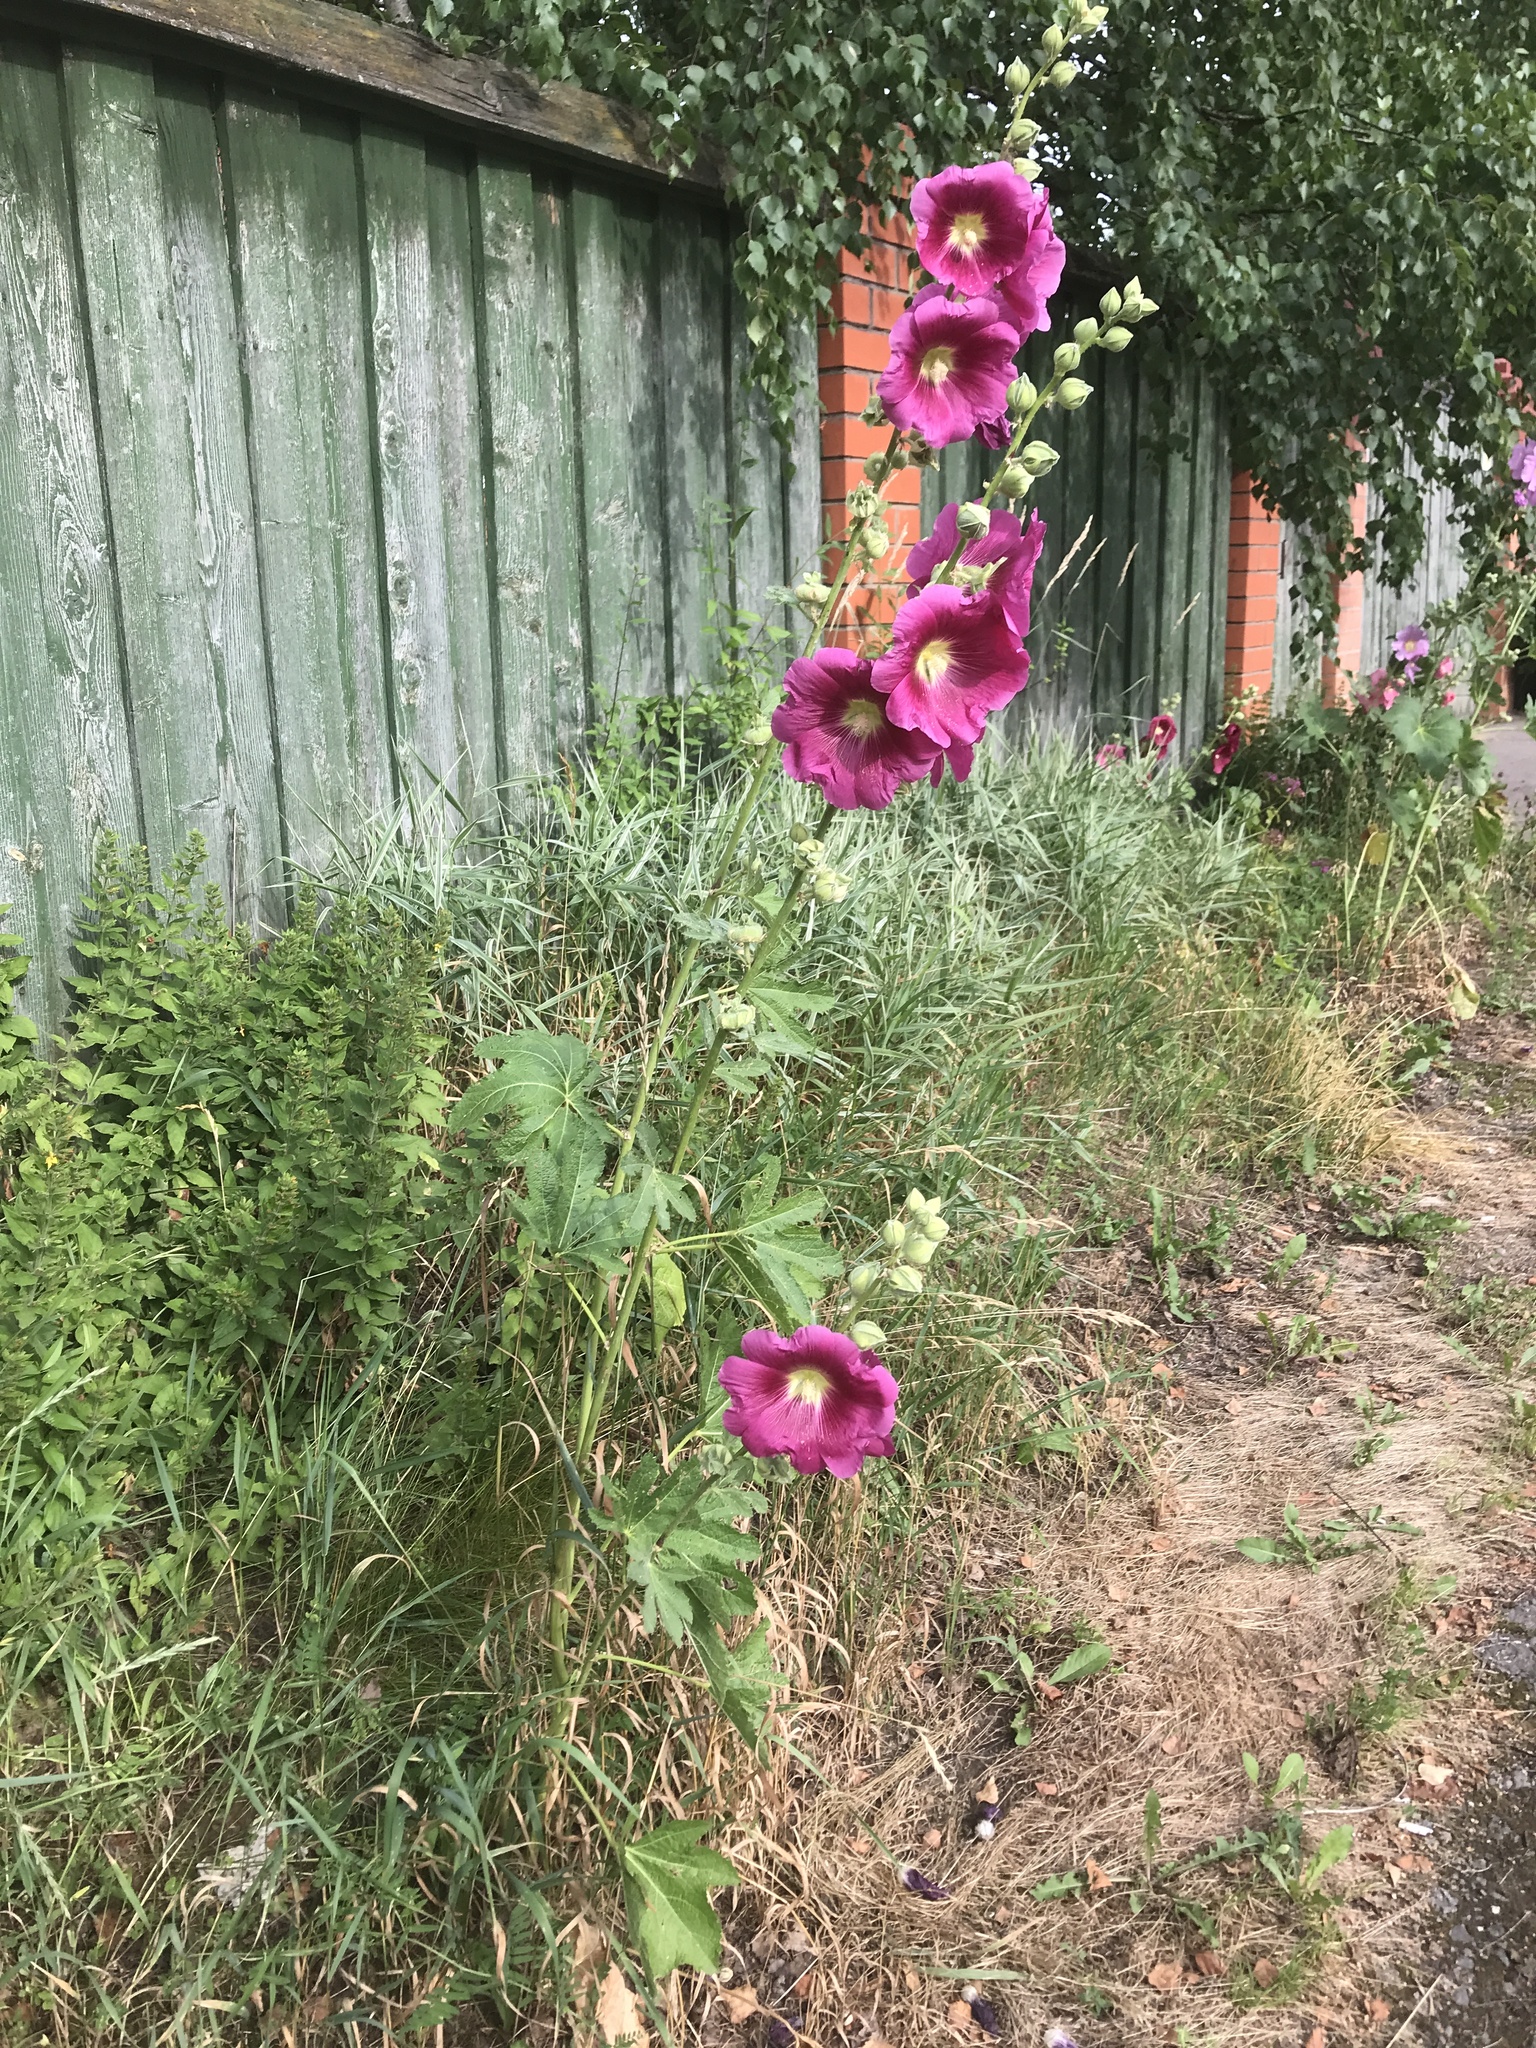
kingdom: Plantae
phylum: Tracheophyta
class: Magnoliopsida
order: Malvales
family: Malvaceae
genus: Alcea
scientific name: Alcea rosea
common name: Hollyhock
